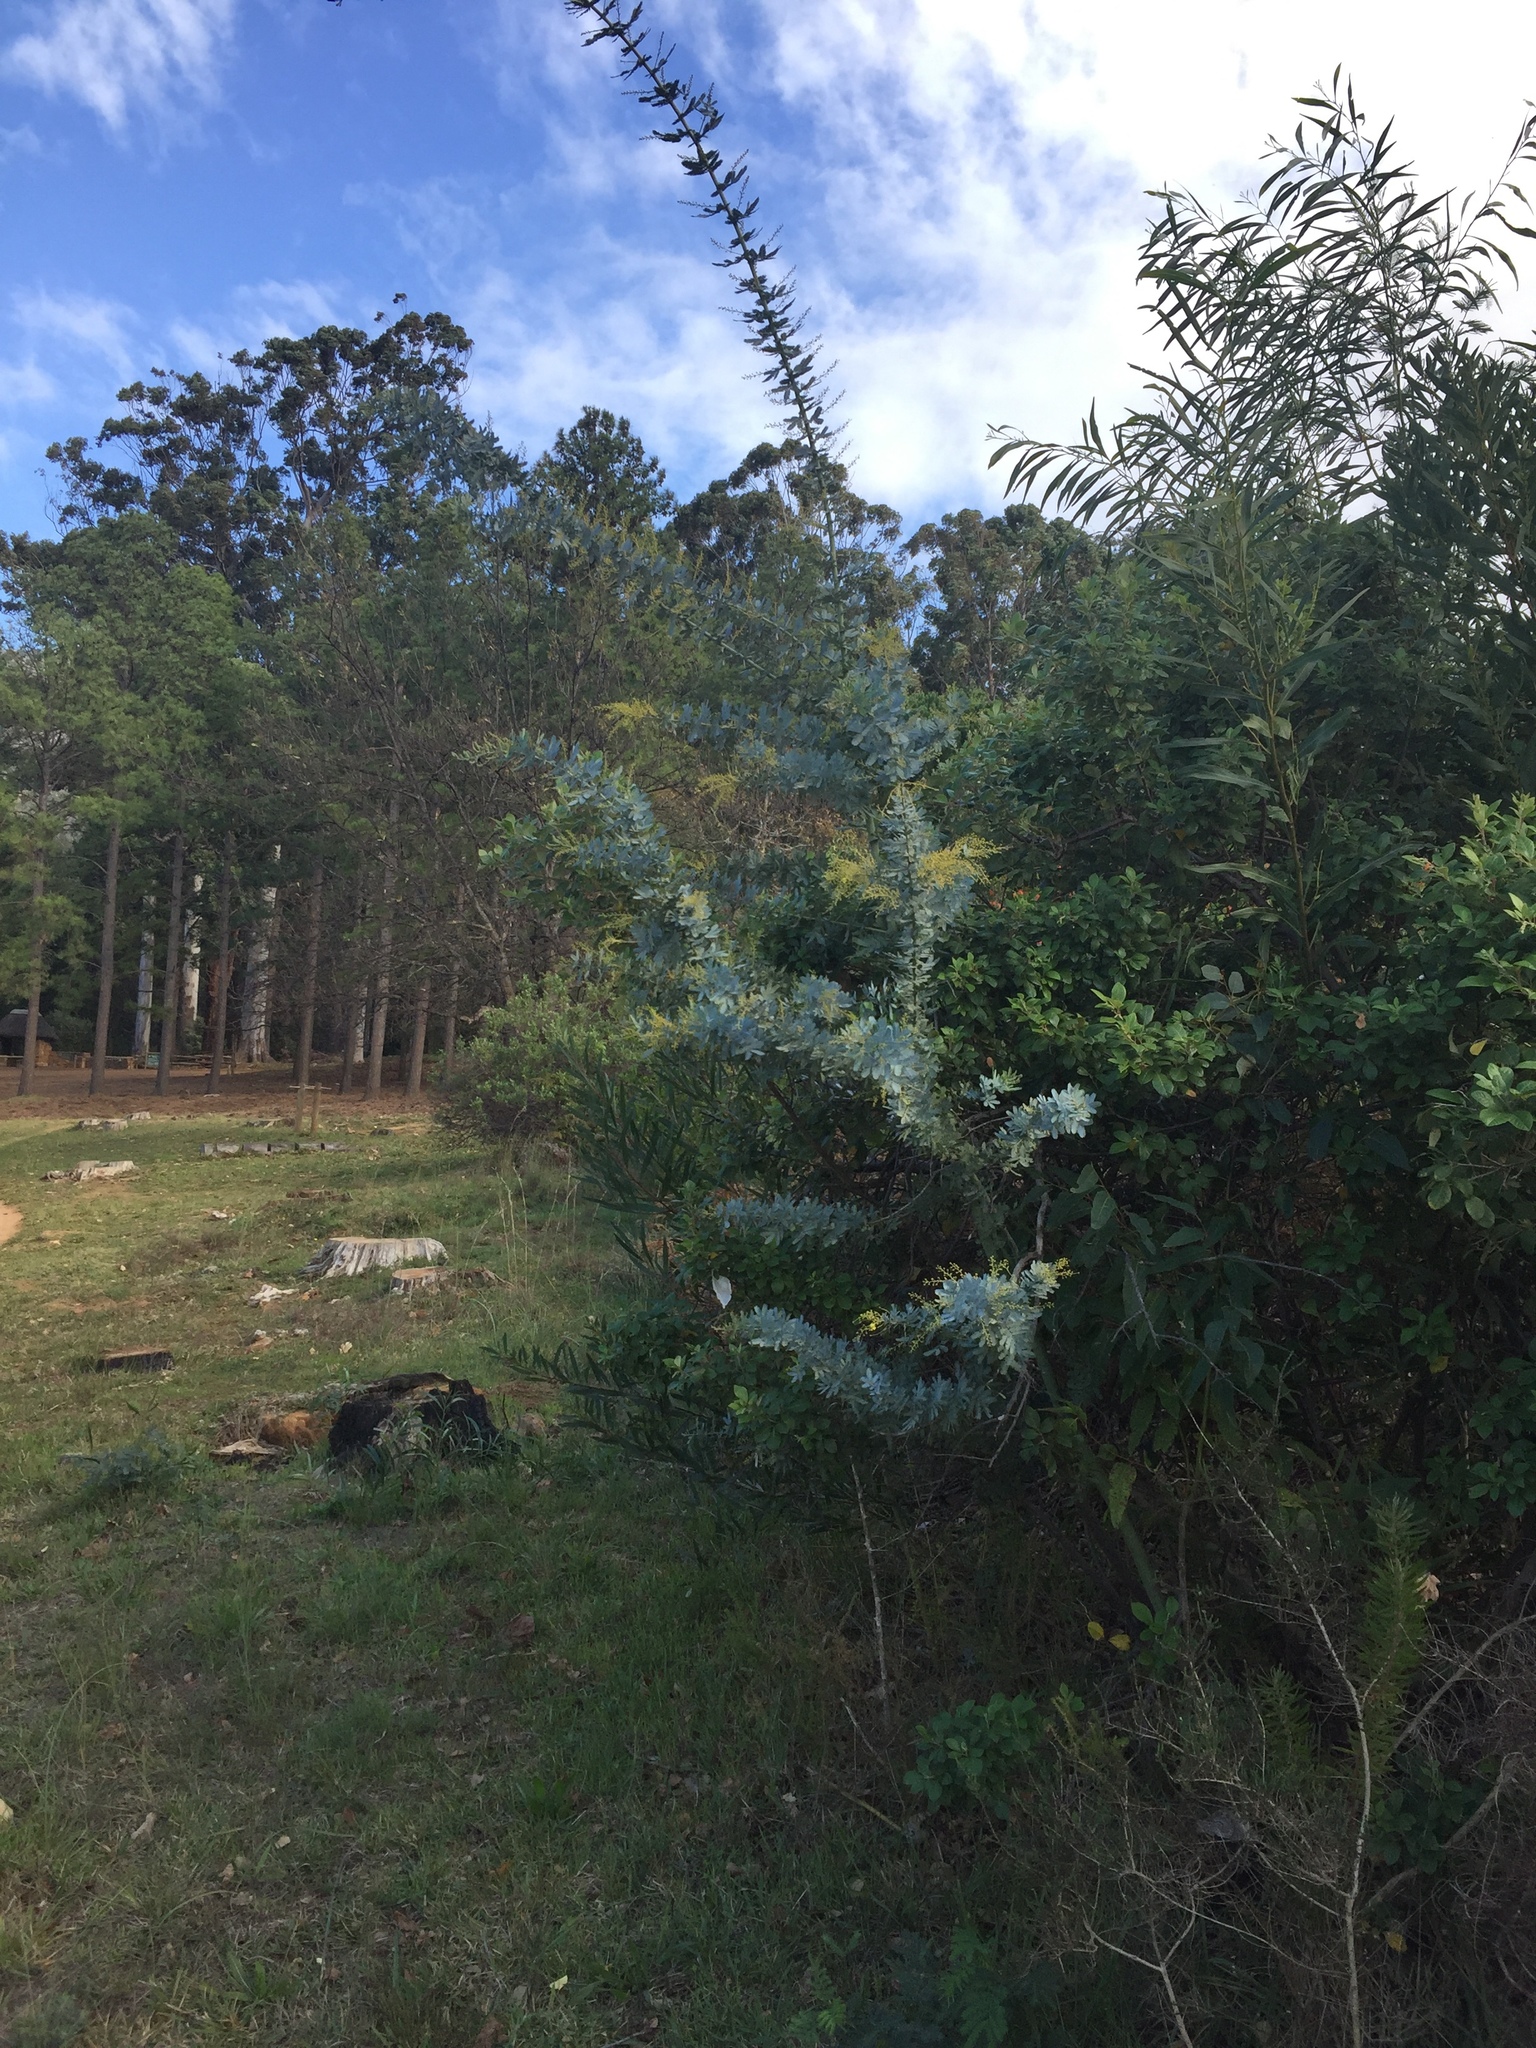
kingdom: Plantae
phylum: Tracheophyta
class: Magnoliopsida
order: Fabales
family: Fabaceae
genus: Acacia
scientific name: Acacia baileyana
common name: Cootamundra wattle
